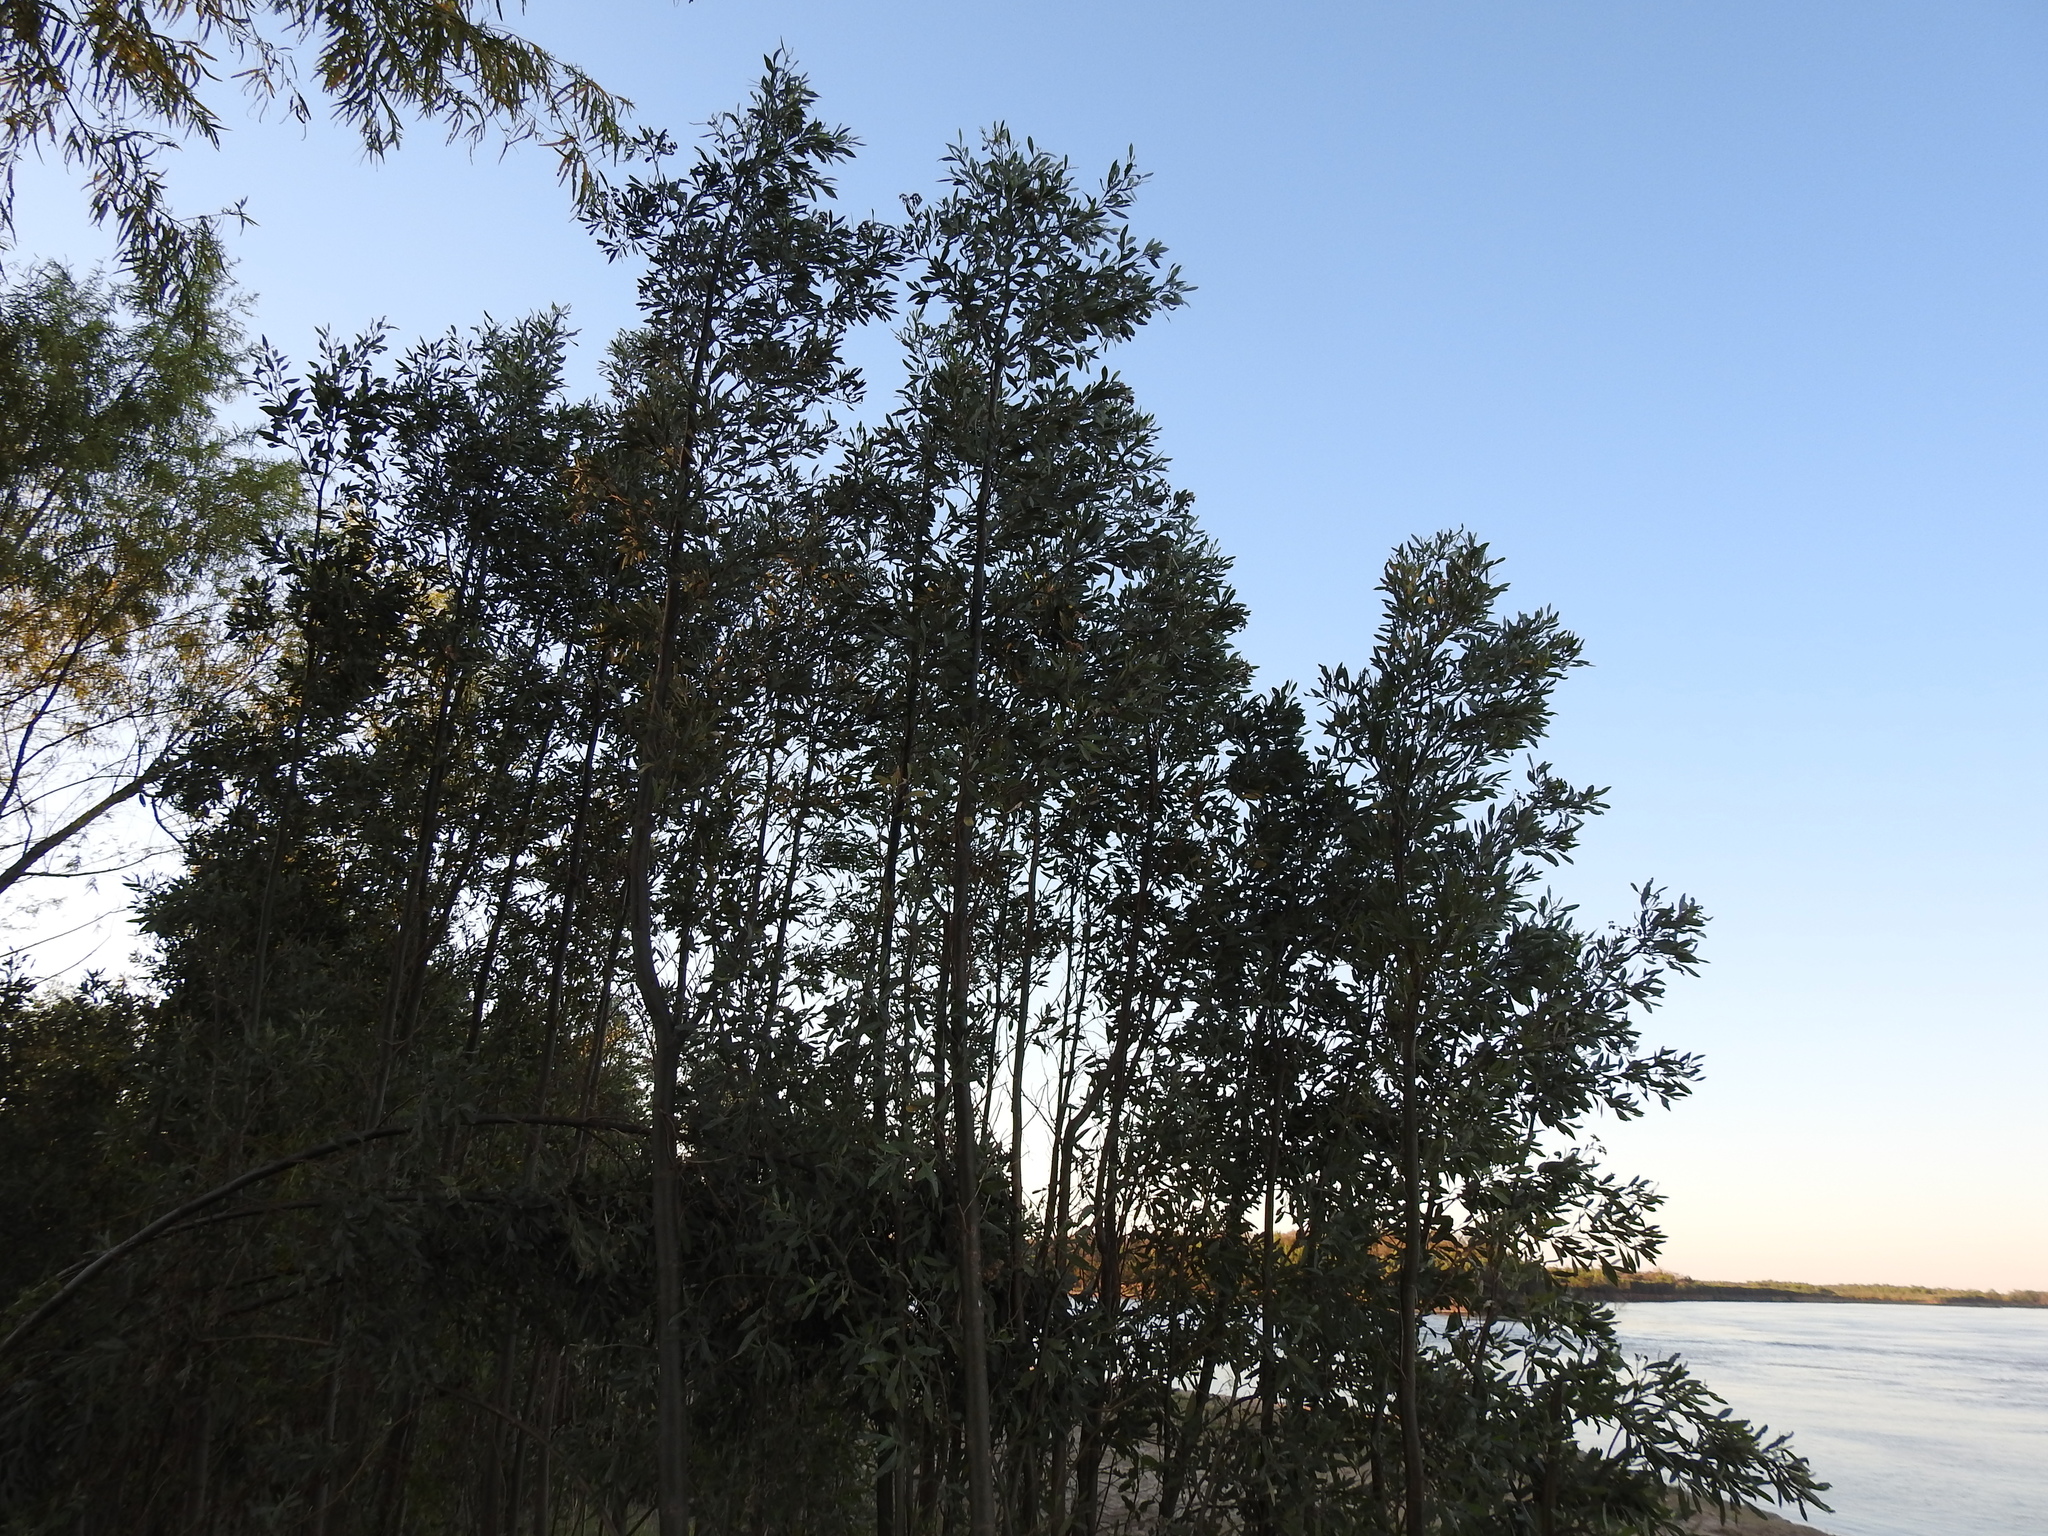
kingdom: Plantae
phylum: Tracheophyta
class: Magnoliopsida
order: Asterales
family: Asteraceae
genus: Tessaria
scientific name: Tessaria integrifolia
